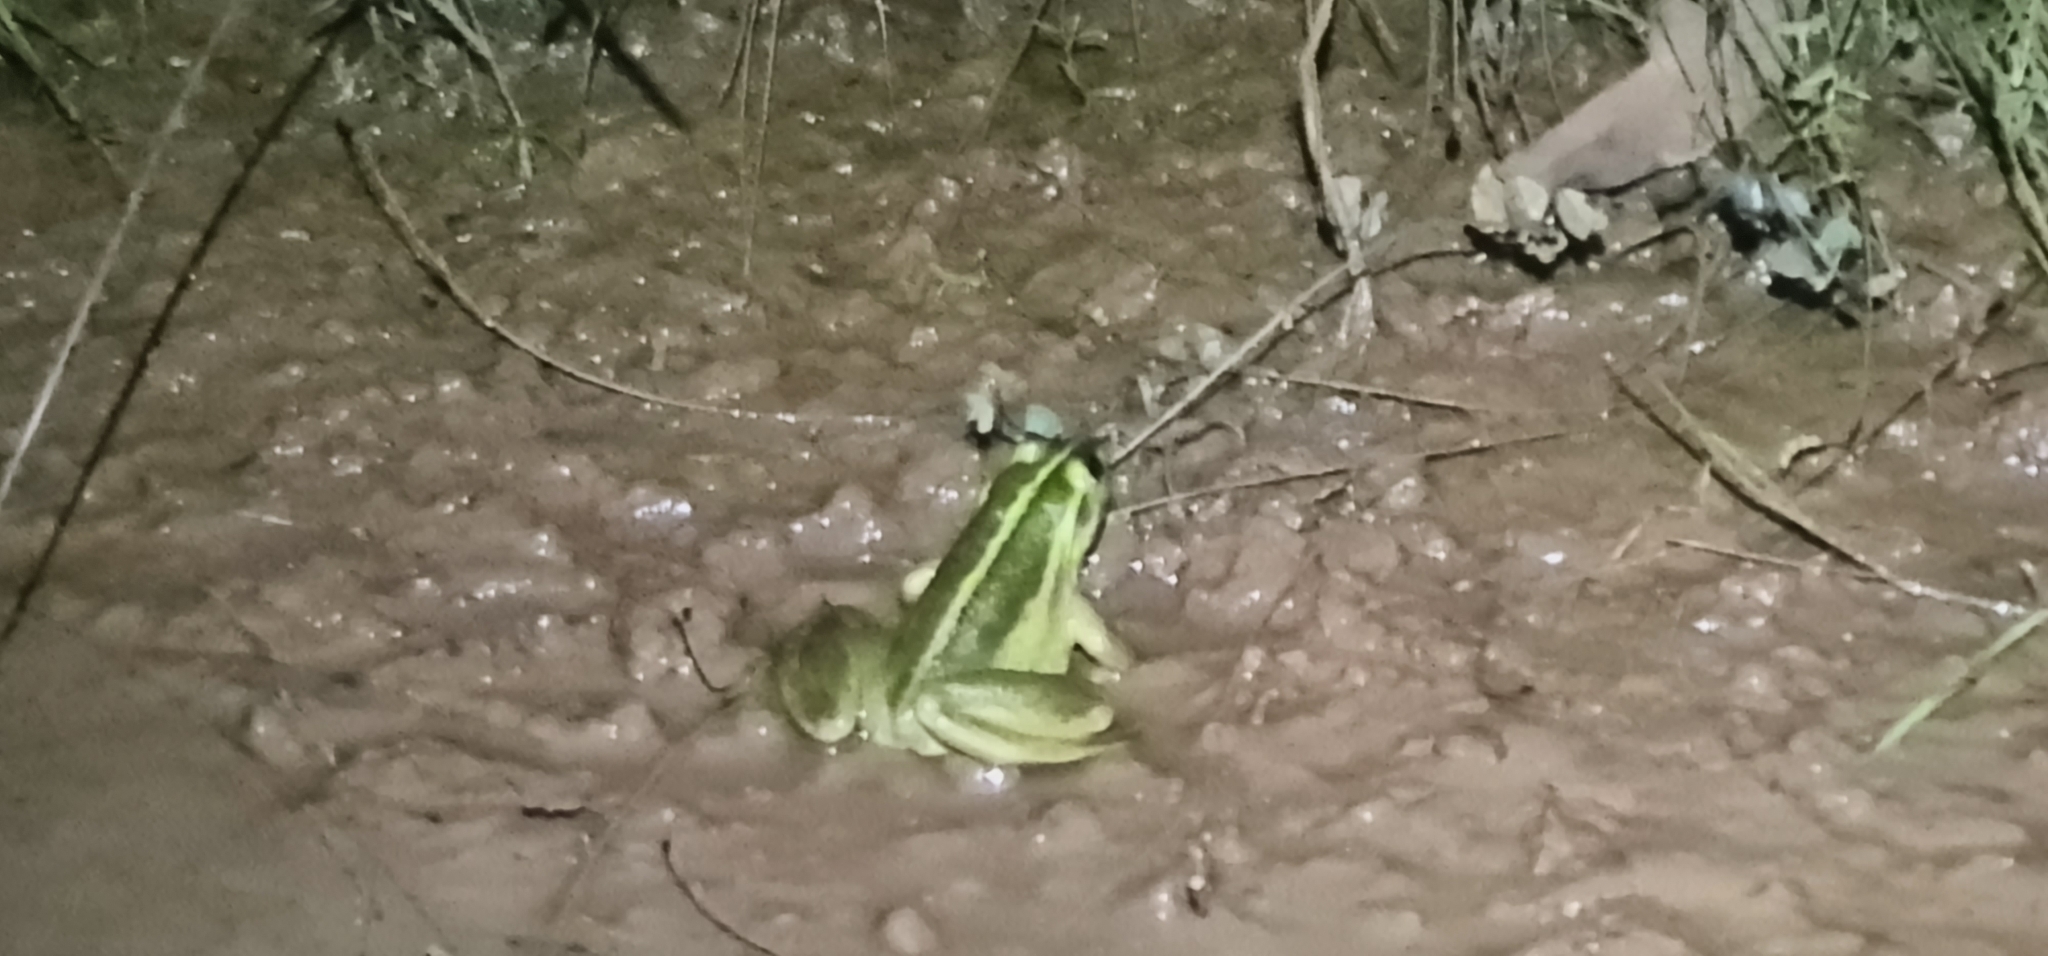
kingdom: Animalia
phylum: Chordata
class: Amphibia
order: Anura
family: Pelodryadidae
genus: Ranoidea
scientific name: Ranoidea dahlii
